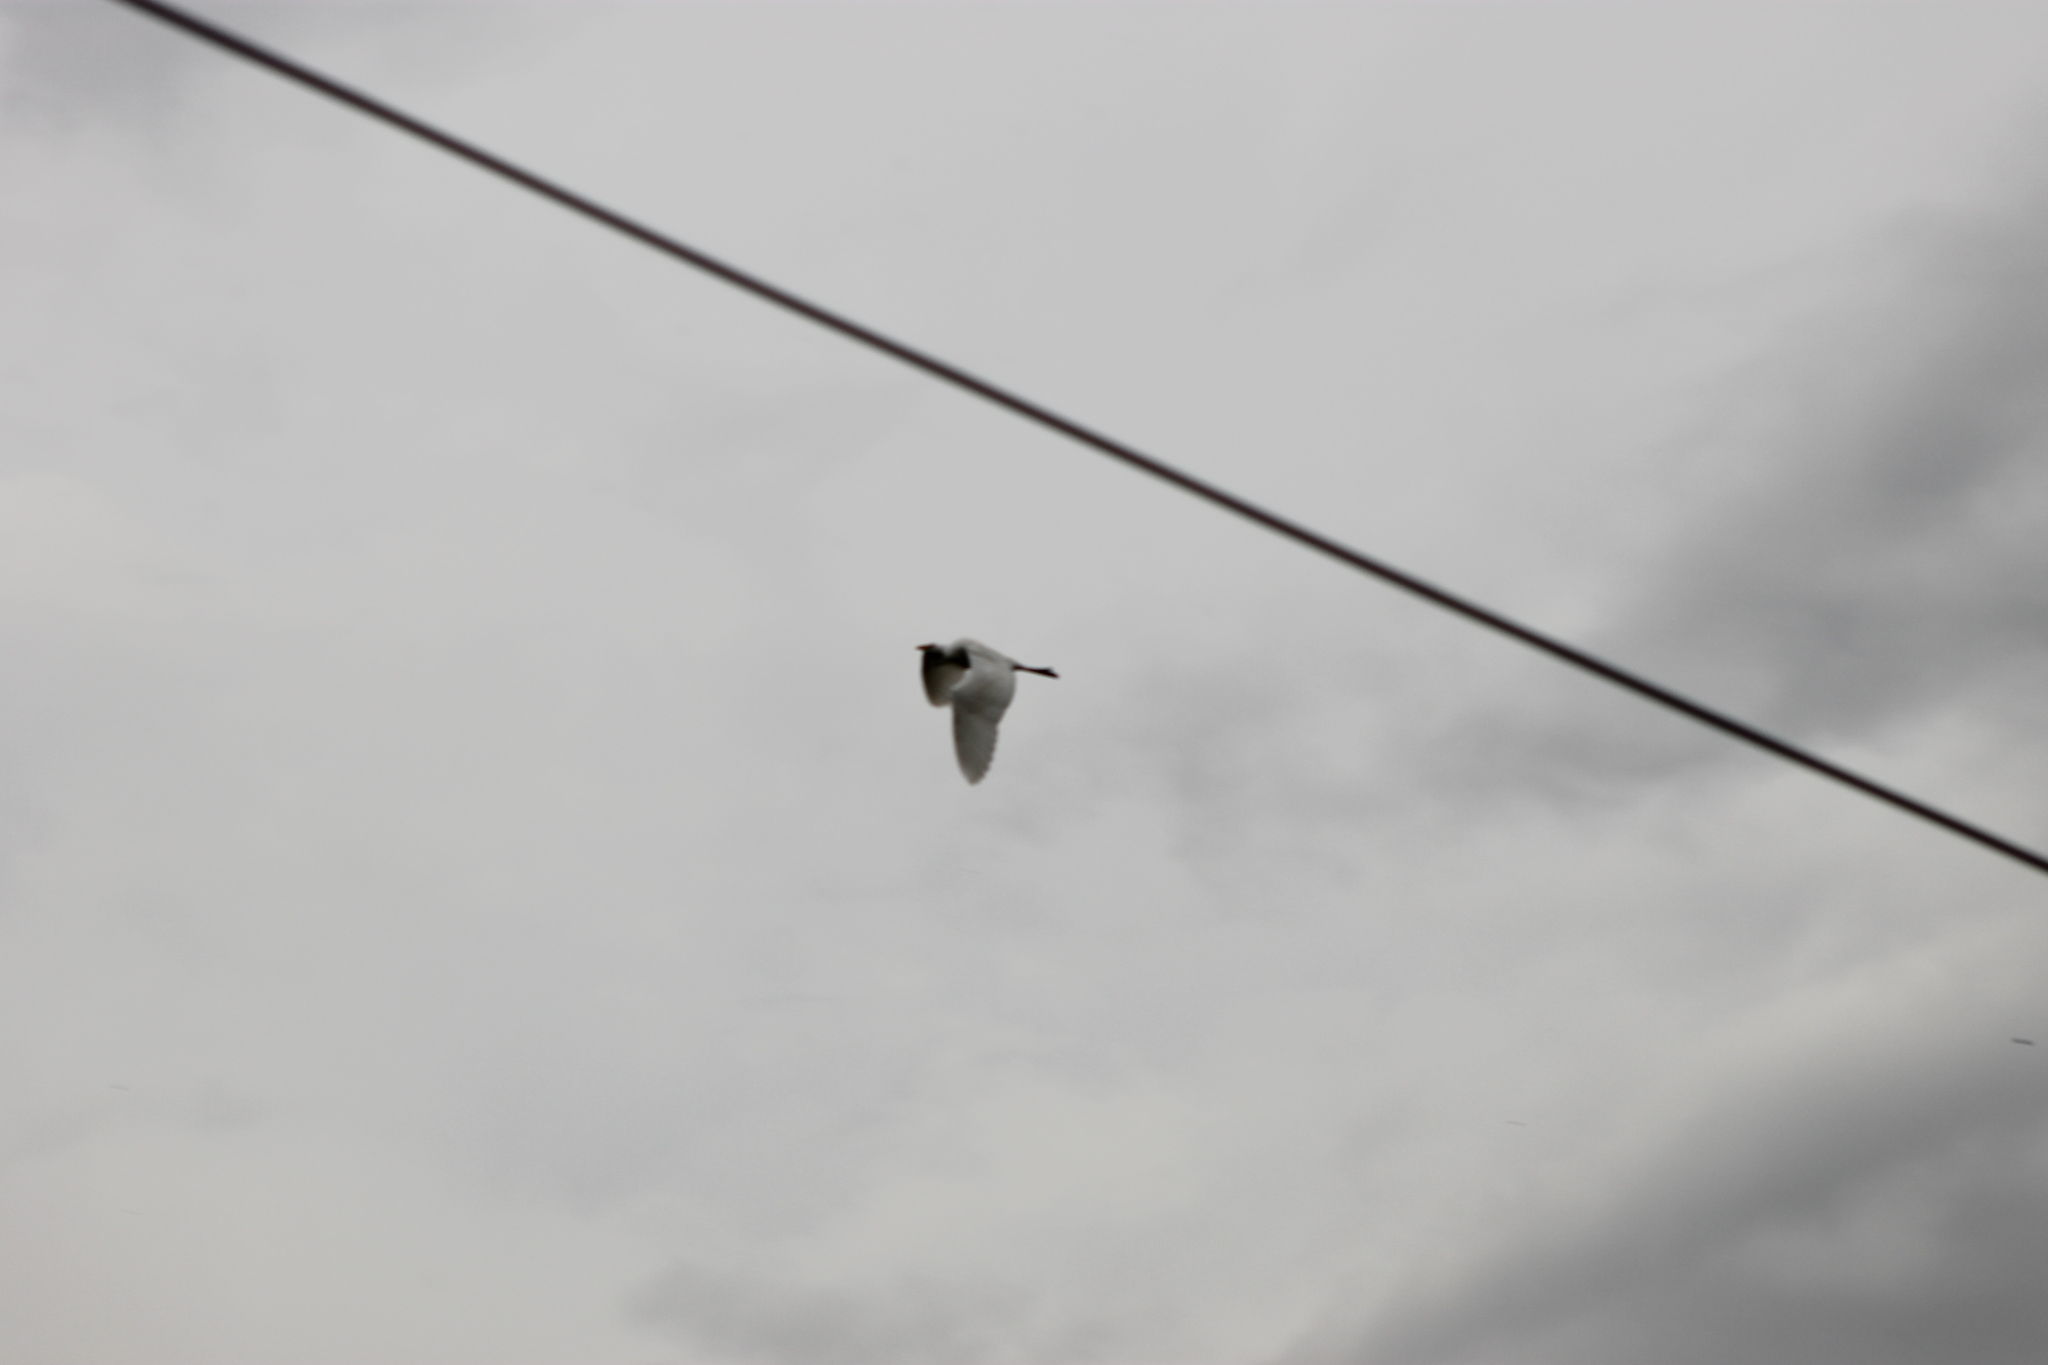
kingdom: Animalia
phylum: Chordata
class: Aves
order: Pelecaniformes
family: Ardeidae
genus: Ardea
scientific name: Ardea alba
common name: Great egret
